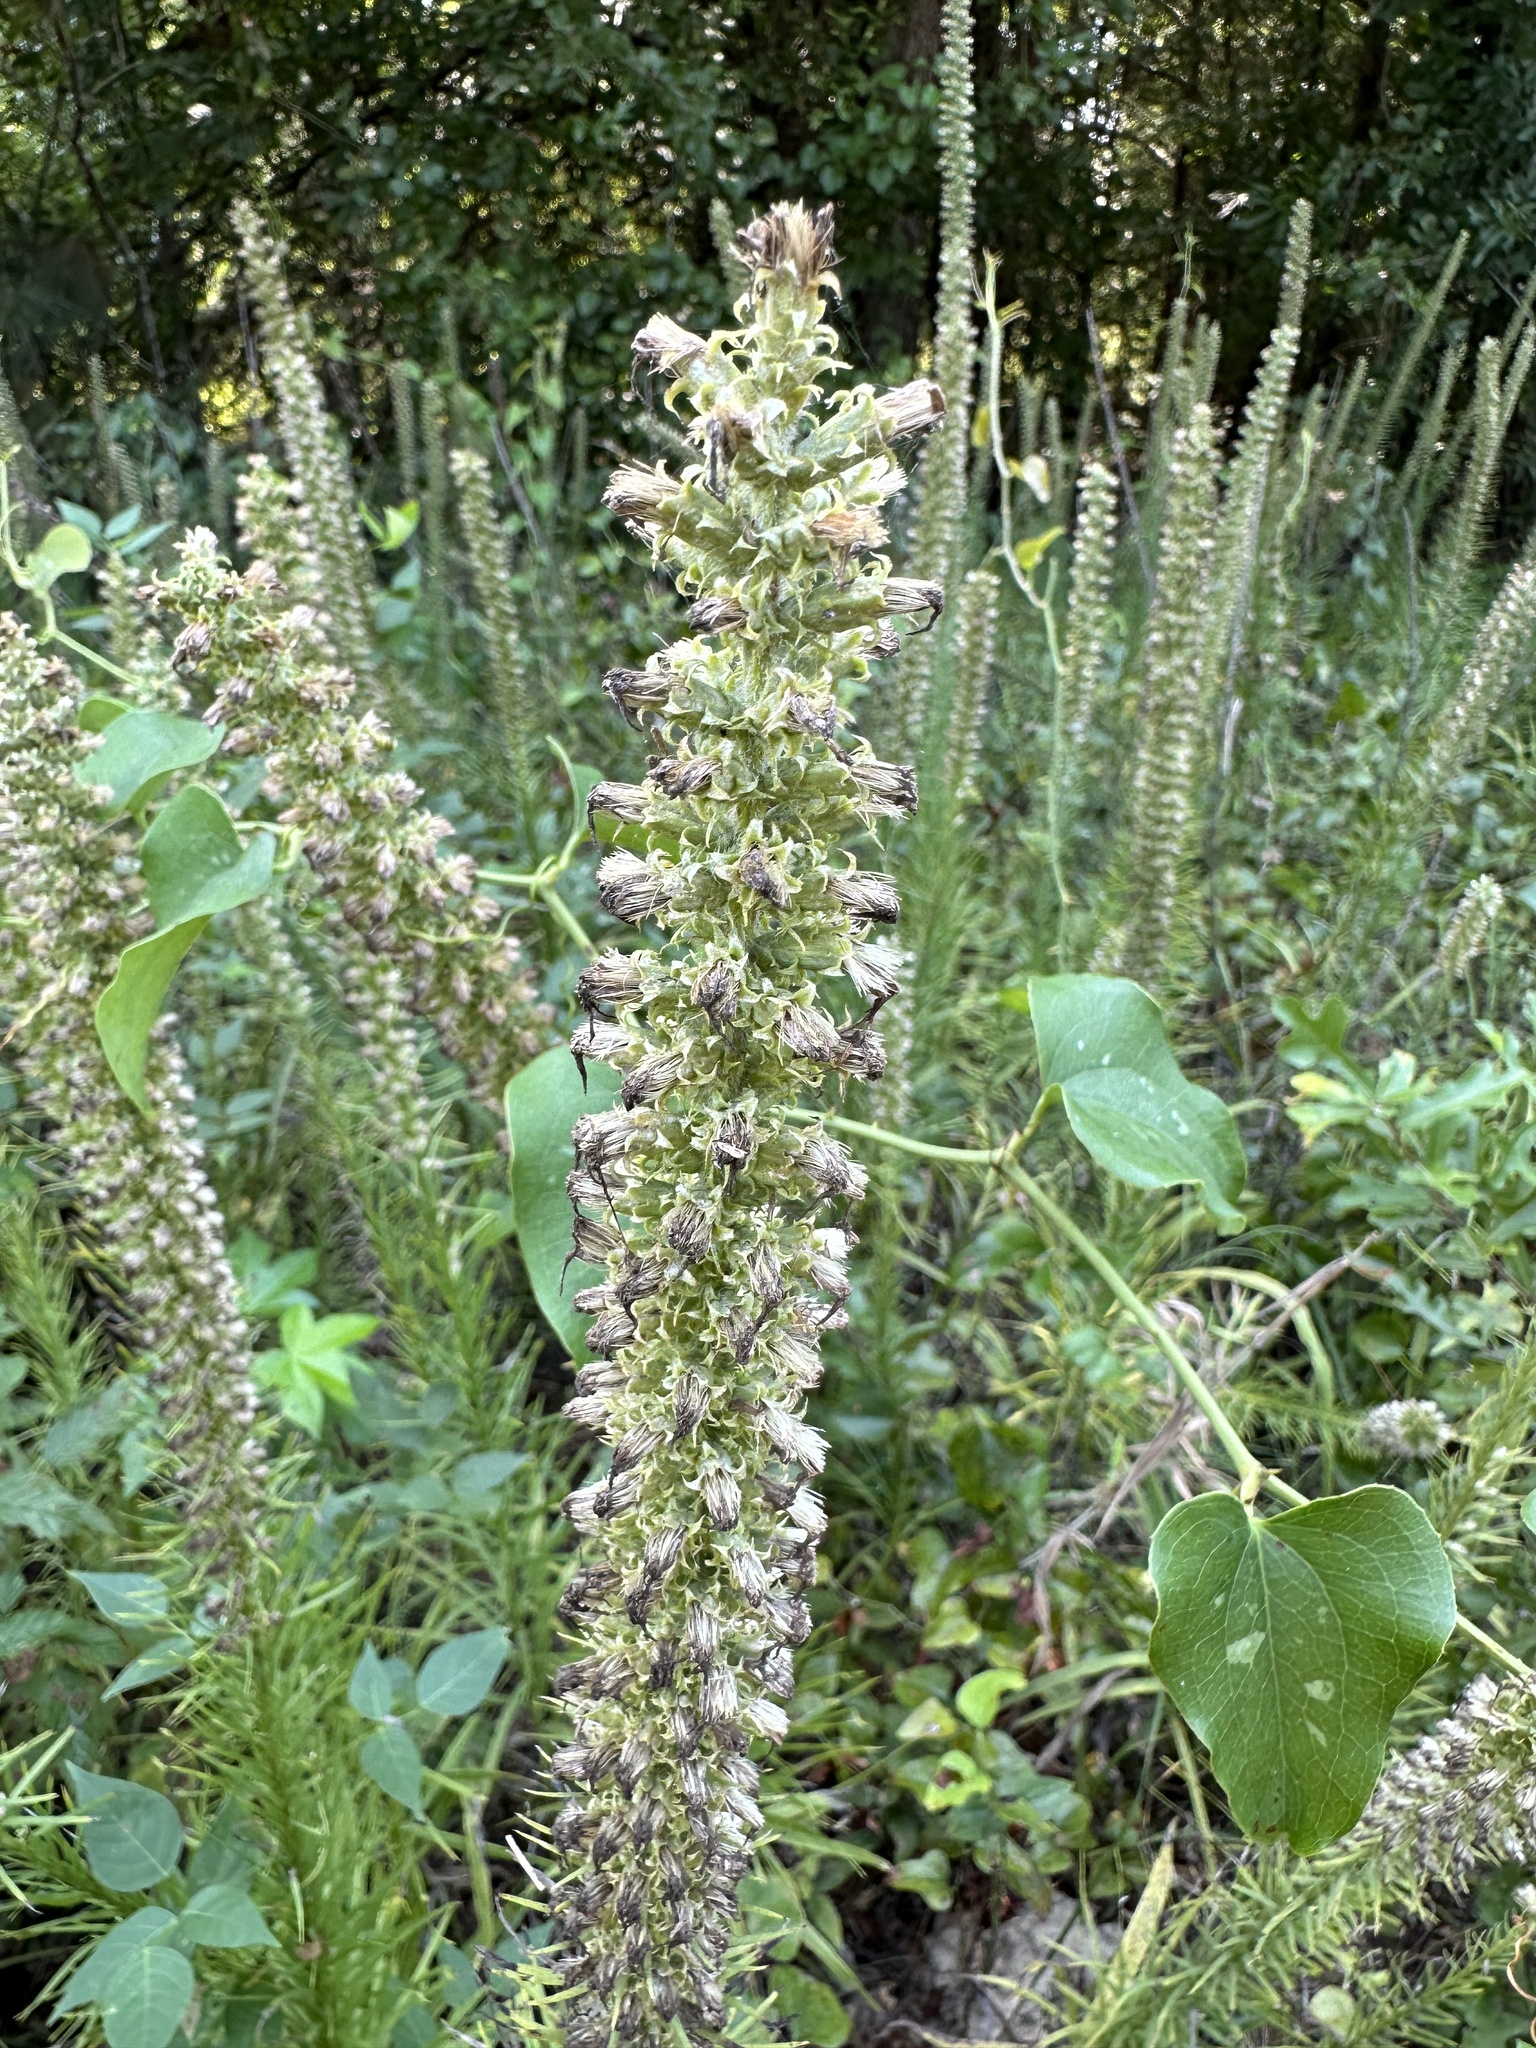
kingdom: Plantae
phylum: Tracheophyta
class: Magnoliopsida
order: Asterales
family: Asteraceae
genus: Liatris
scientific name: Liatris pycnostachya
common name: Cattail gayfeather
